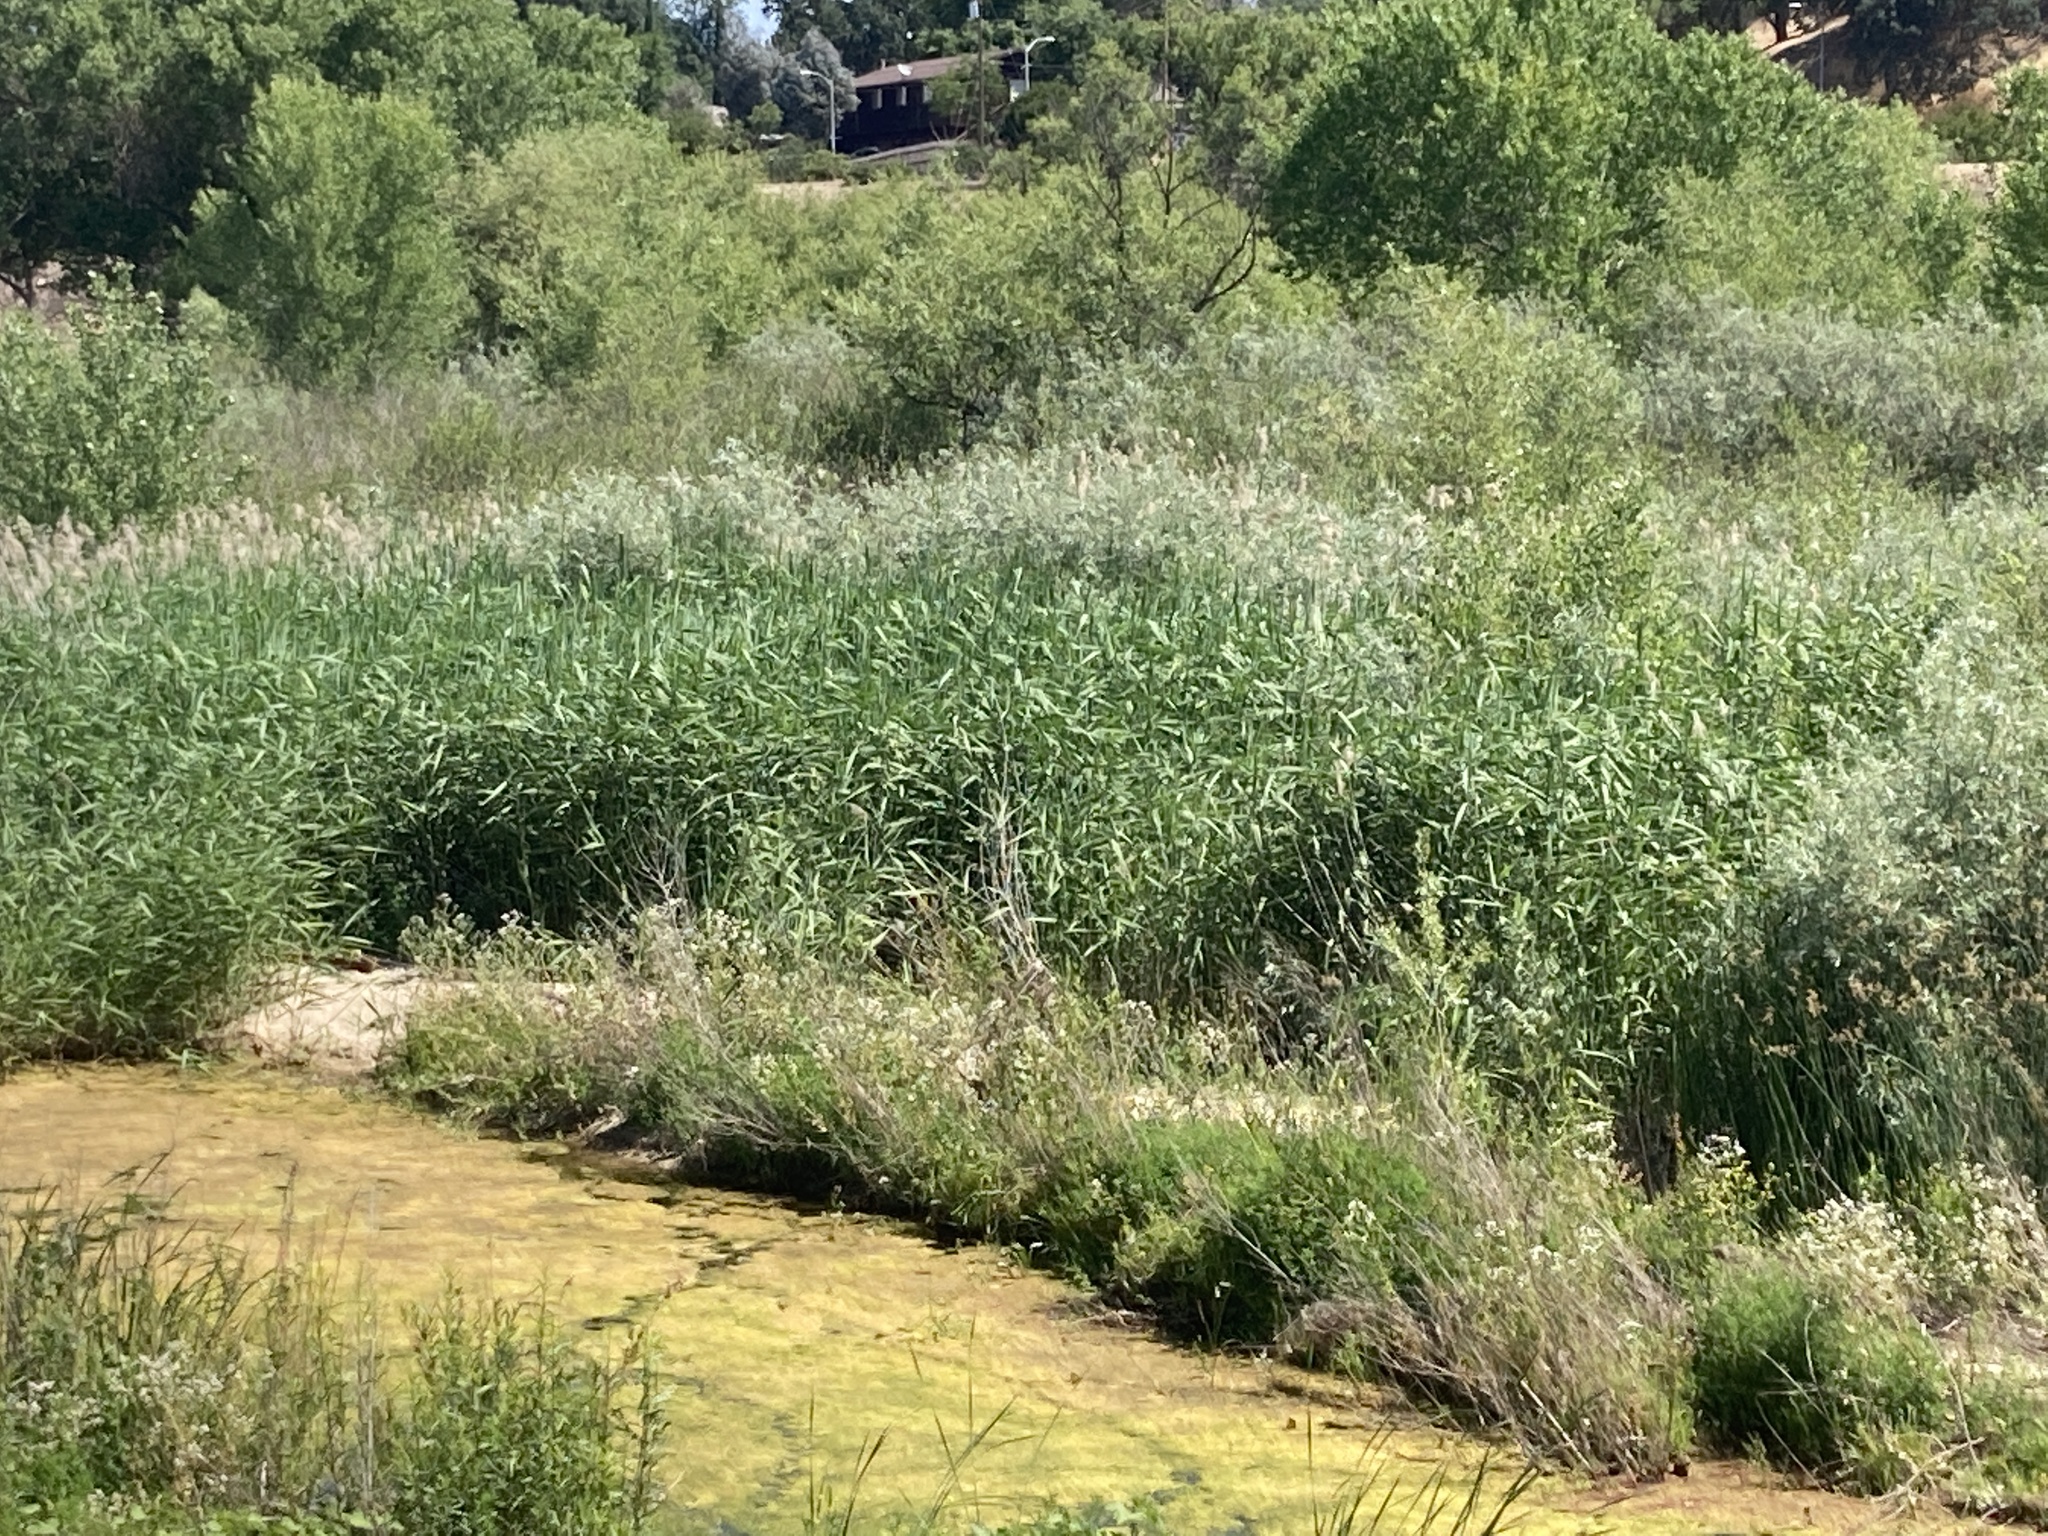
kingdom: Plantae
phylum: Tracheophyta
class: Liliopsida
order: Poales
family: Poaceae
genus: Phragmites
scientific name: Phragmites australis
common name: Common reed
